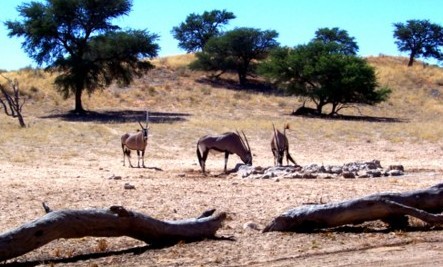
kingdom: Animalia
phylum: Chordata
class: Mammalia
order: Artiodactyla
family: Bovidae
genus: Oryx
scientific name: Oryx gazella
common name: Gemsbok
